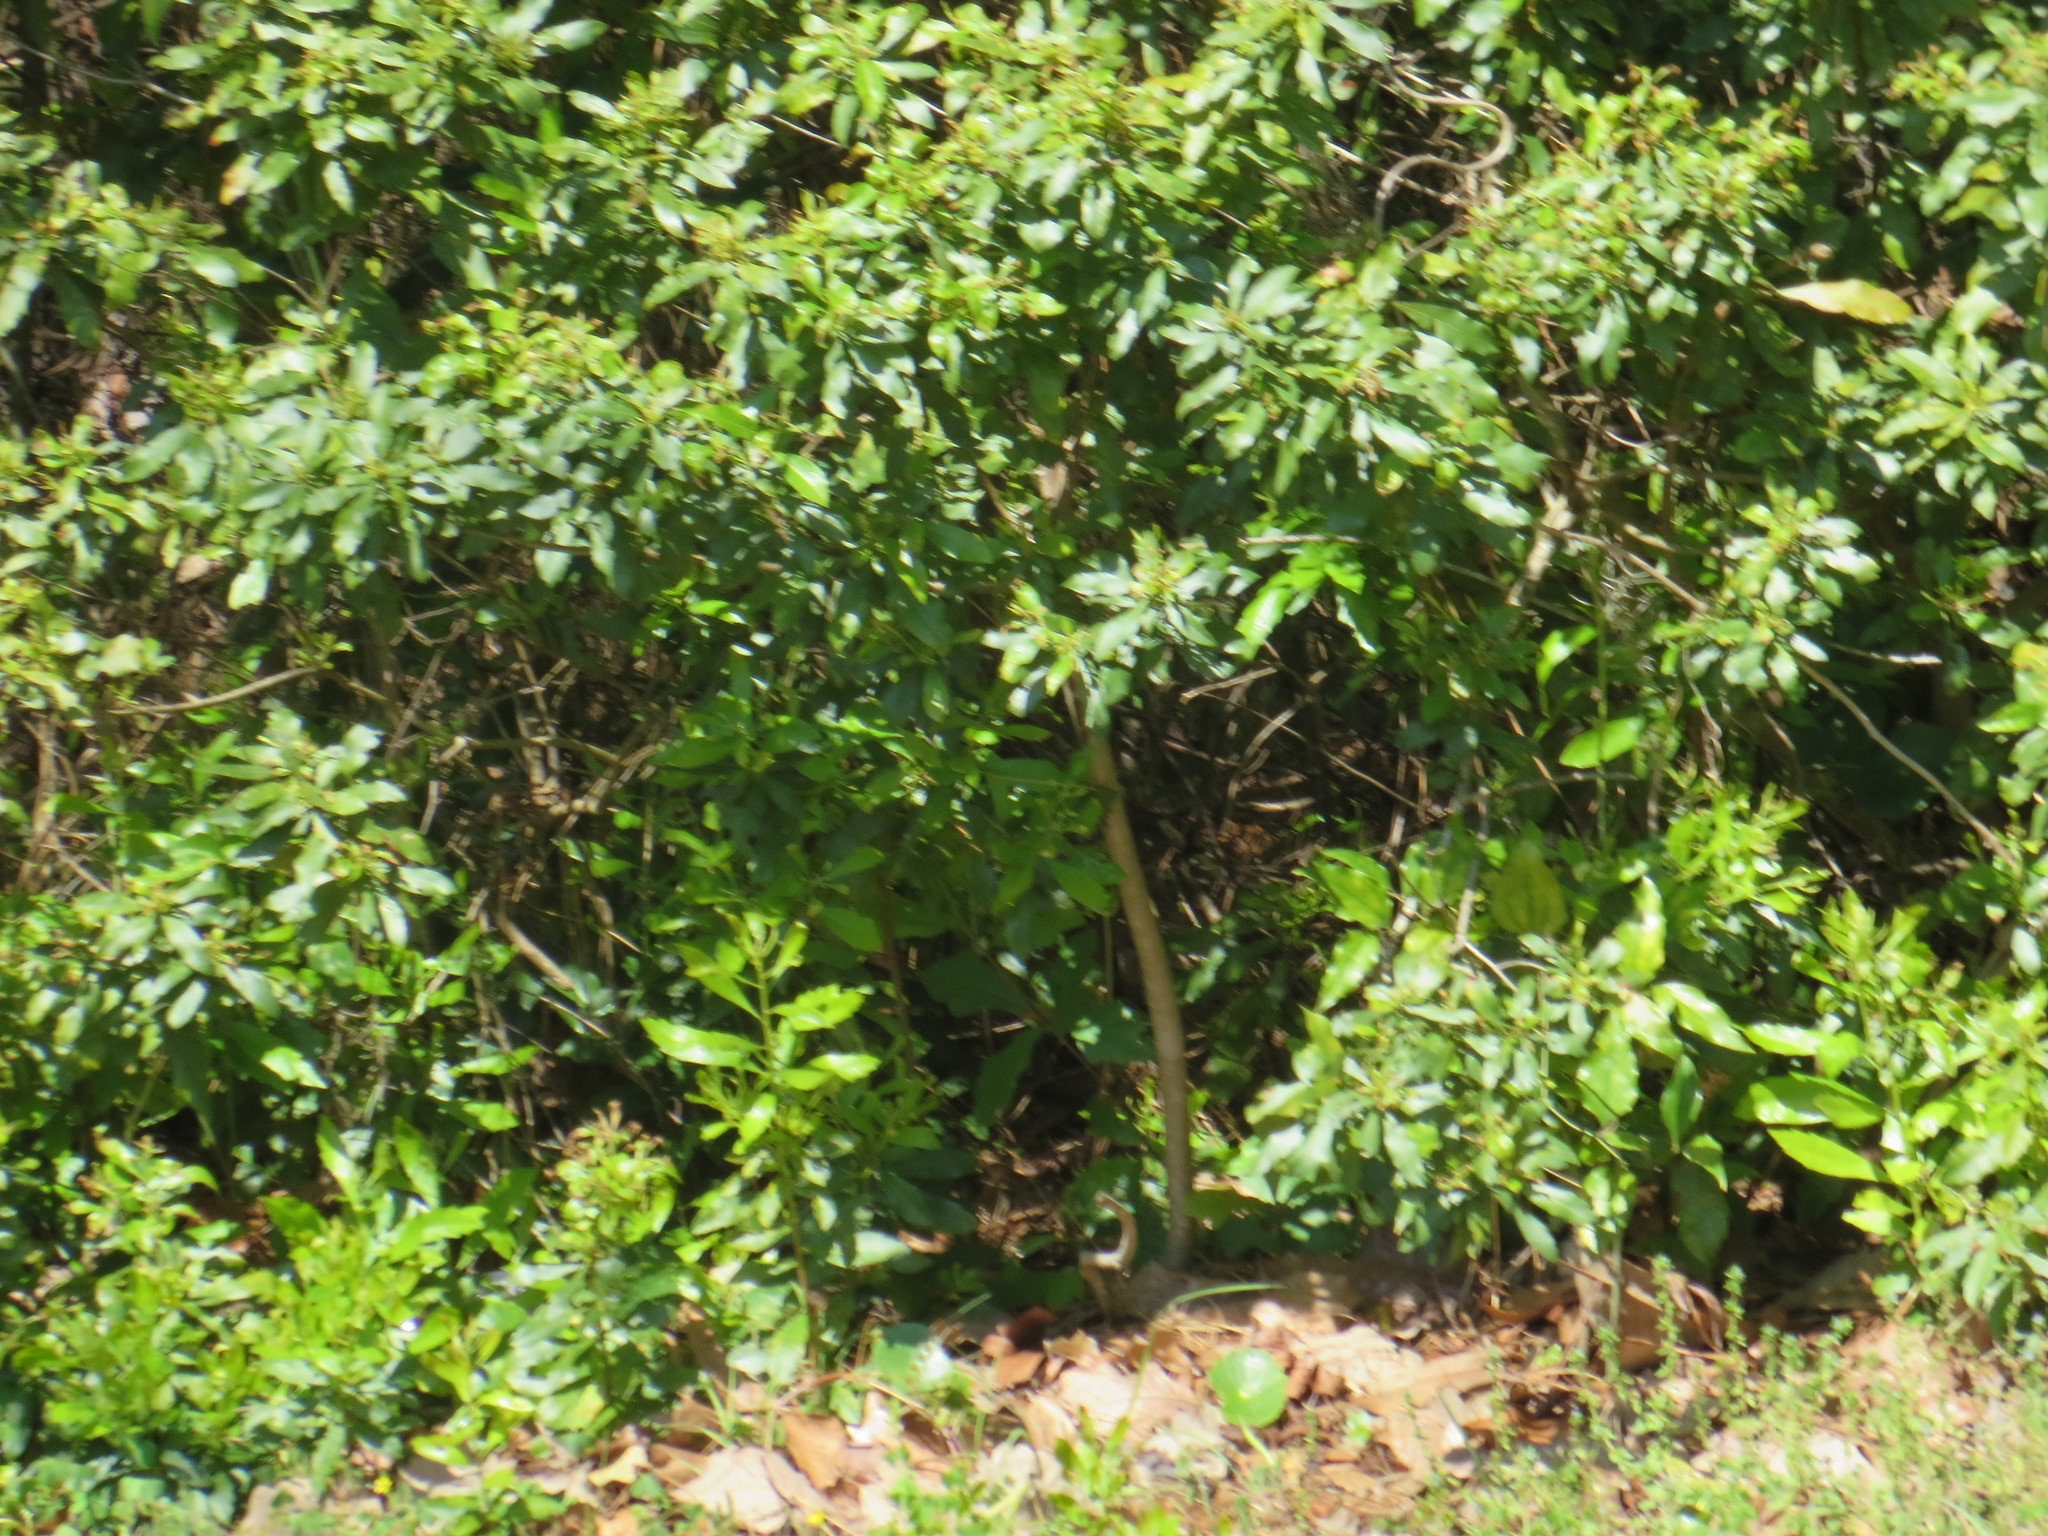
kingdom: Plantae
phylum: Tracheophyta
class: Magnoliopsida
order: Fagales
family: Myricaceae
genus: Morella
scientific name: Morella cerifera
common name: Wax myrtle
